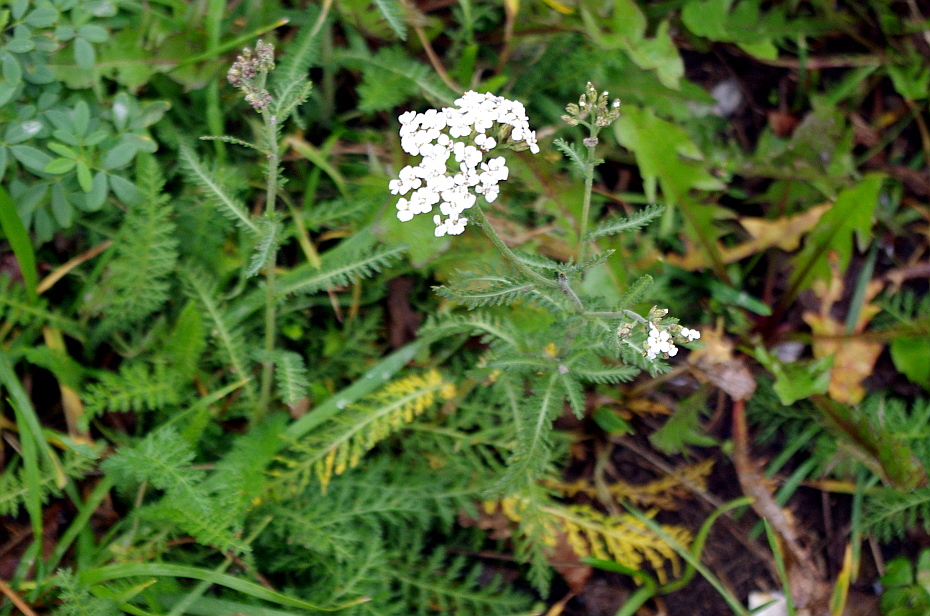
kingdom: Plantae
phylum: Tracheophyta
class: Magnoliopsida
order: Asterales
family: Asteraceae
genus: Achillea
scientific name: Achillea millefolium
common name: Yarrow
